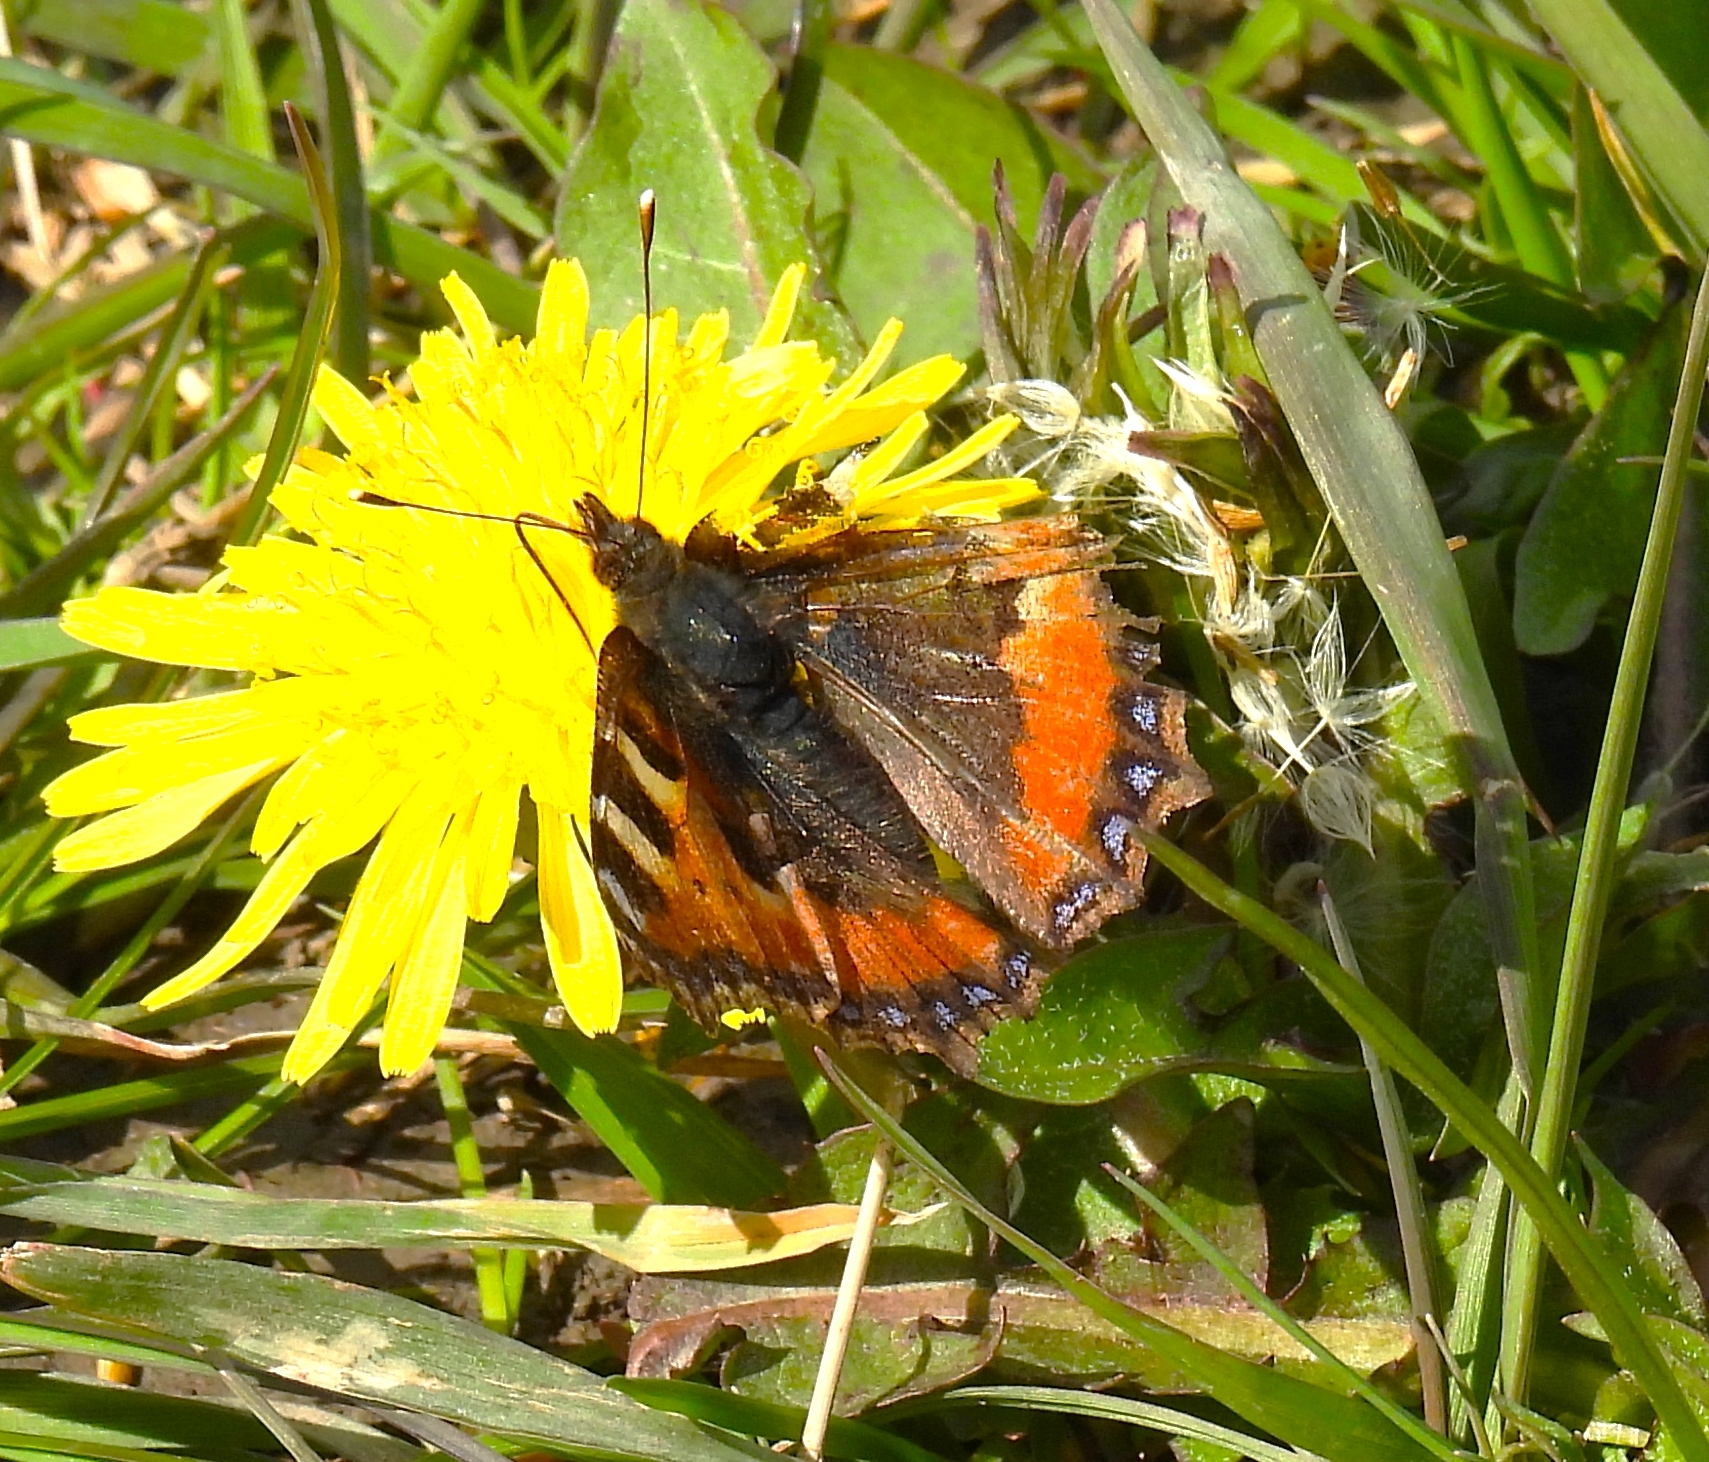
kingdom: Animalia
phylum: Arthropoda
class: Insecta
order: Lepidoptera
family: Nymphalidae
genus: Aglais
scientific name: Aglais urticae
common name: Small tortoiseshell
